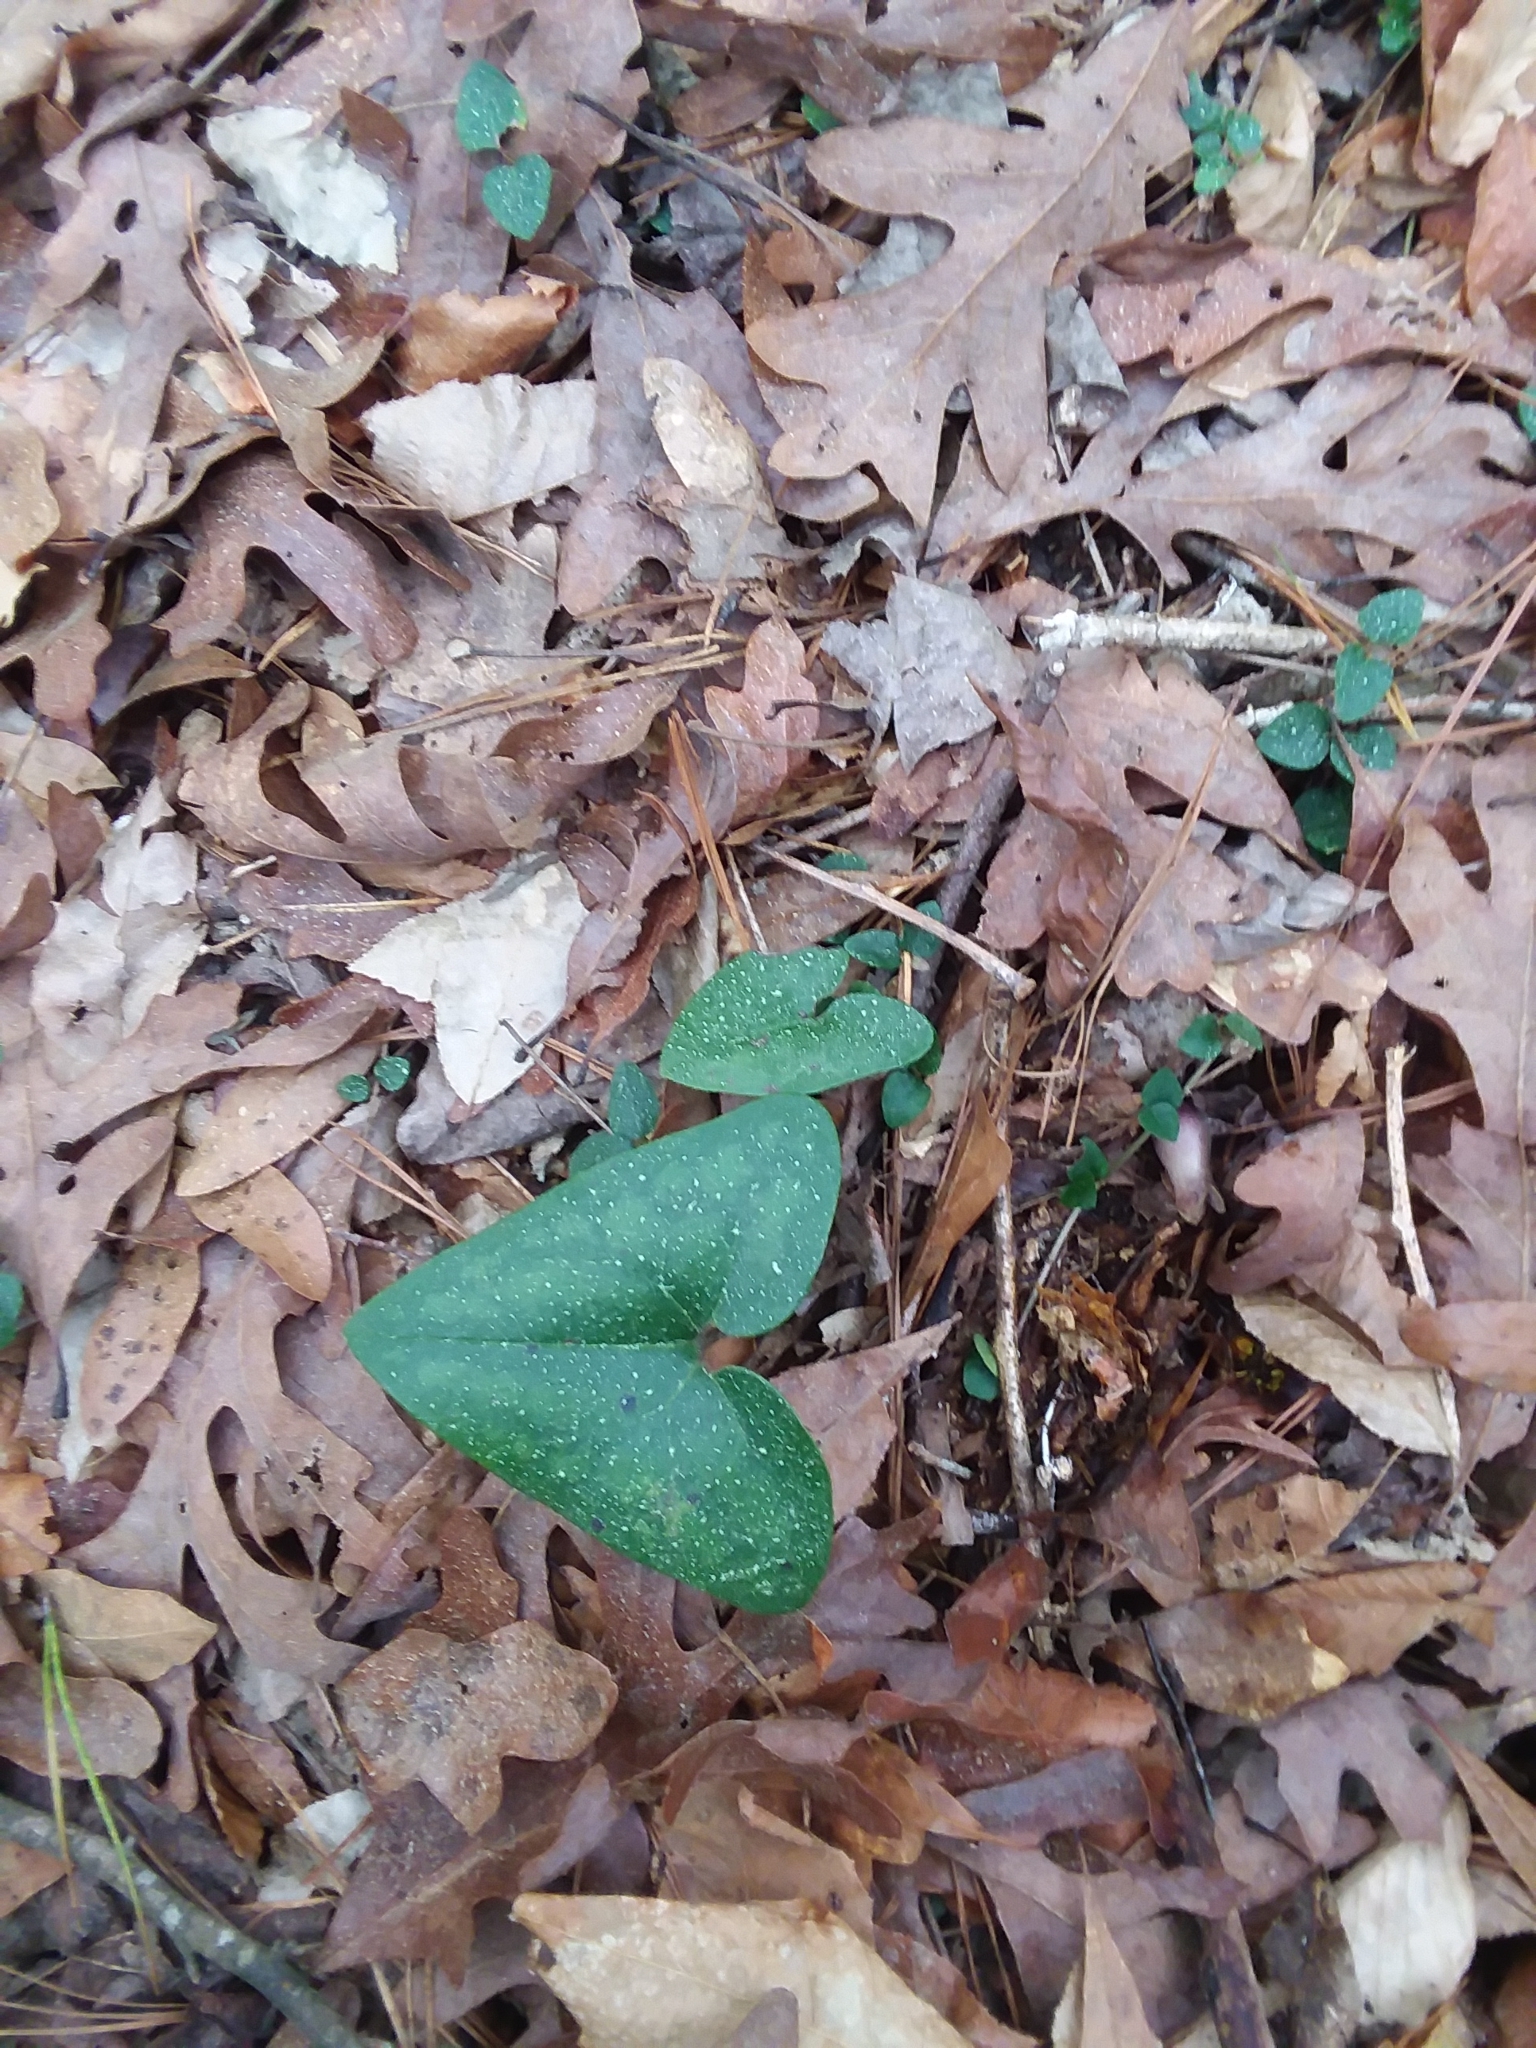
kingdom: Plantae
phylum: Tracheophyta
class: Magnoliopsida
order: Piperales
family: Aristolochiaceae
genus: Hexastylis
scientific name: Hexastylis arifolia
